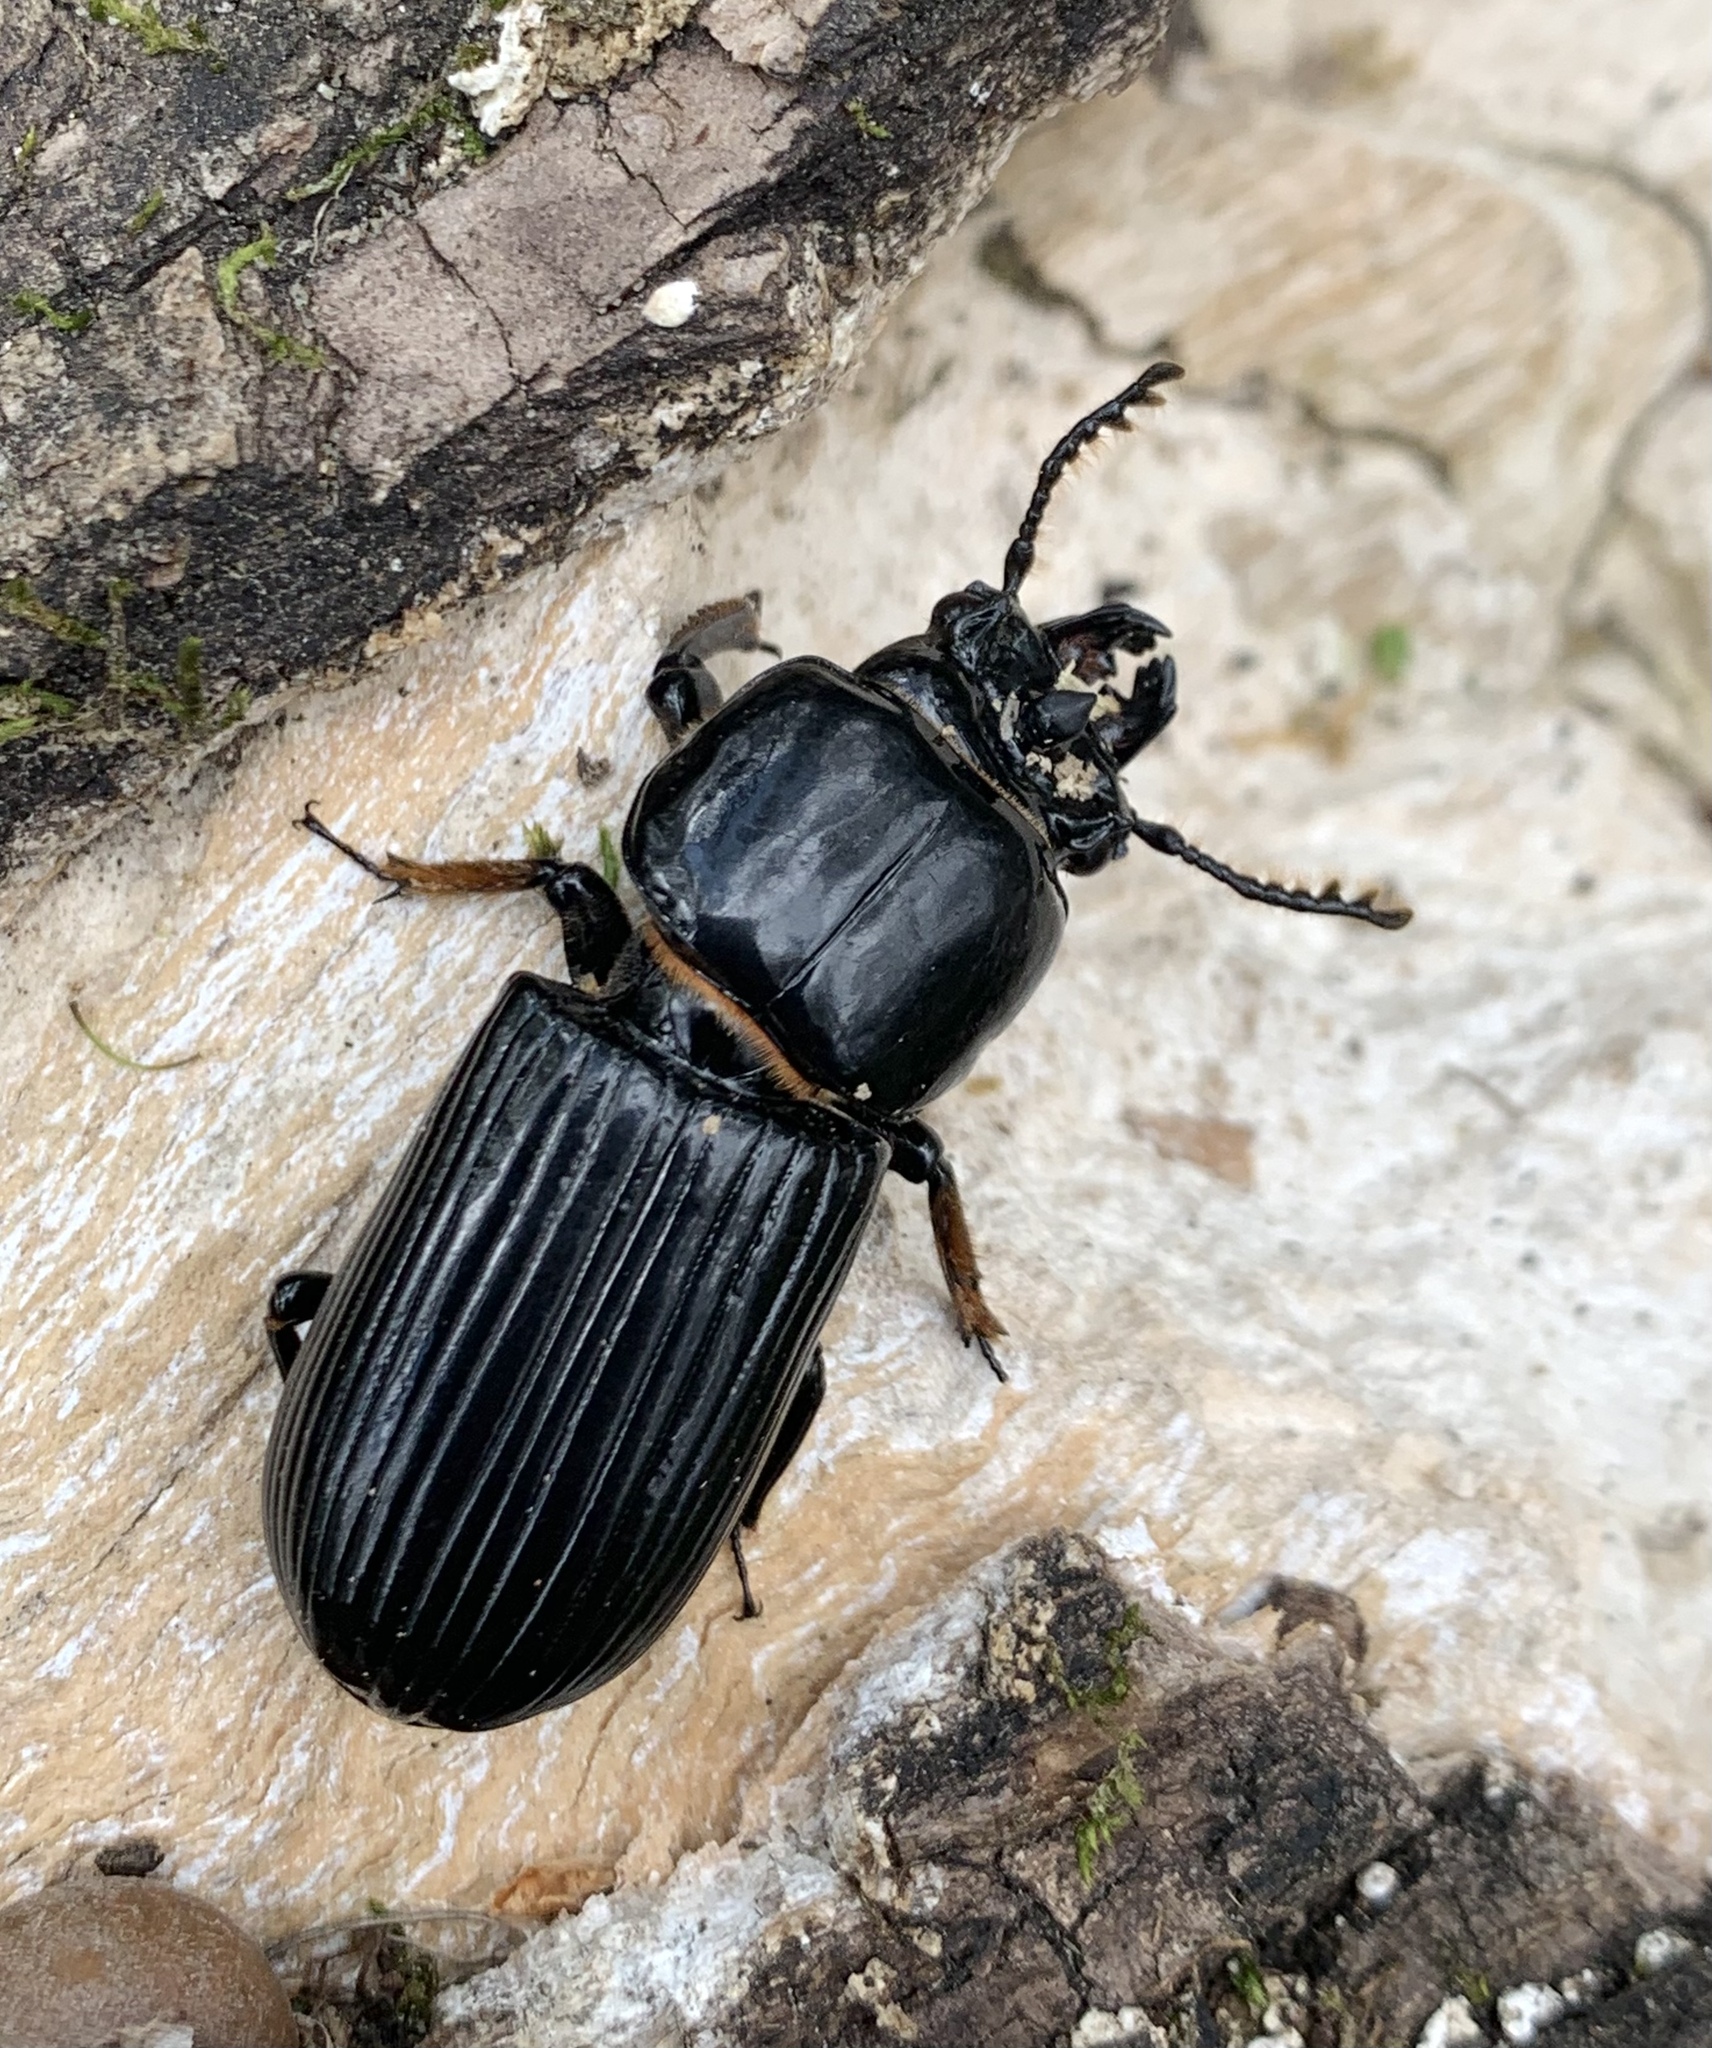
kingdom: Animalia
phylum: Arthropoda
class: Insecta
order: Coleoptera
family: Passalidae
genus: Odontotaenius
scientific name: Odontotaenius disjunctus
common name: Patent leather beetle
